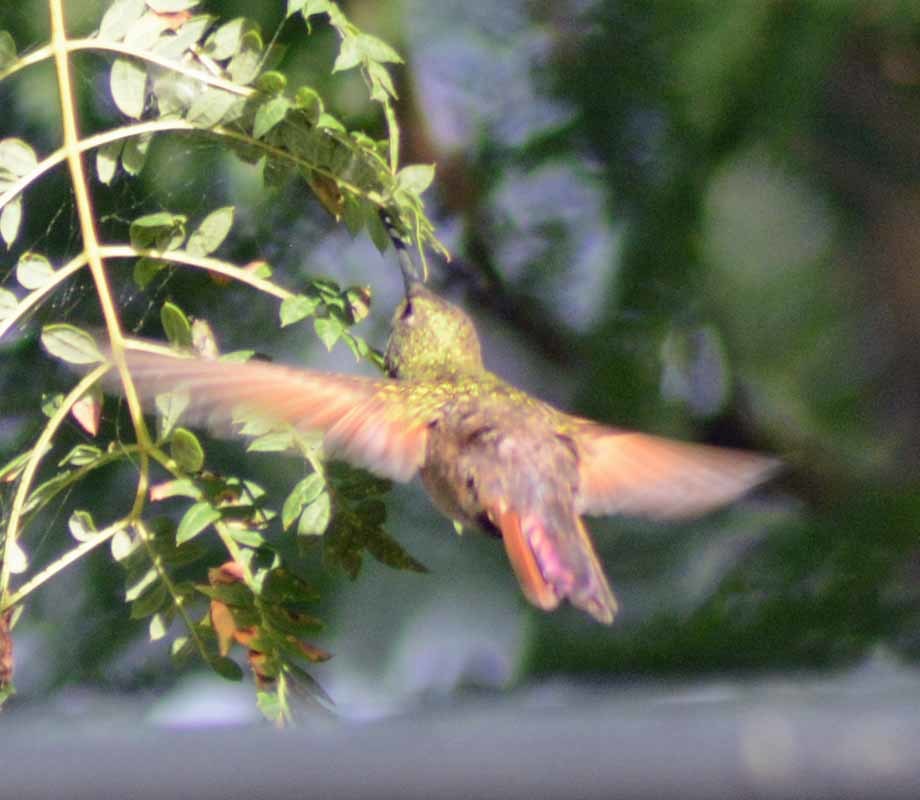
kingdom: Animalia
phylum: Chordata
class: Aves
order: Apodiformes
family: Trochilidae
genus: Saucerottia
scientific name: Saucerottia beryllina
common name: Berylline hummingbird
